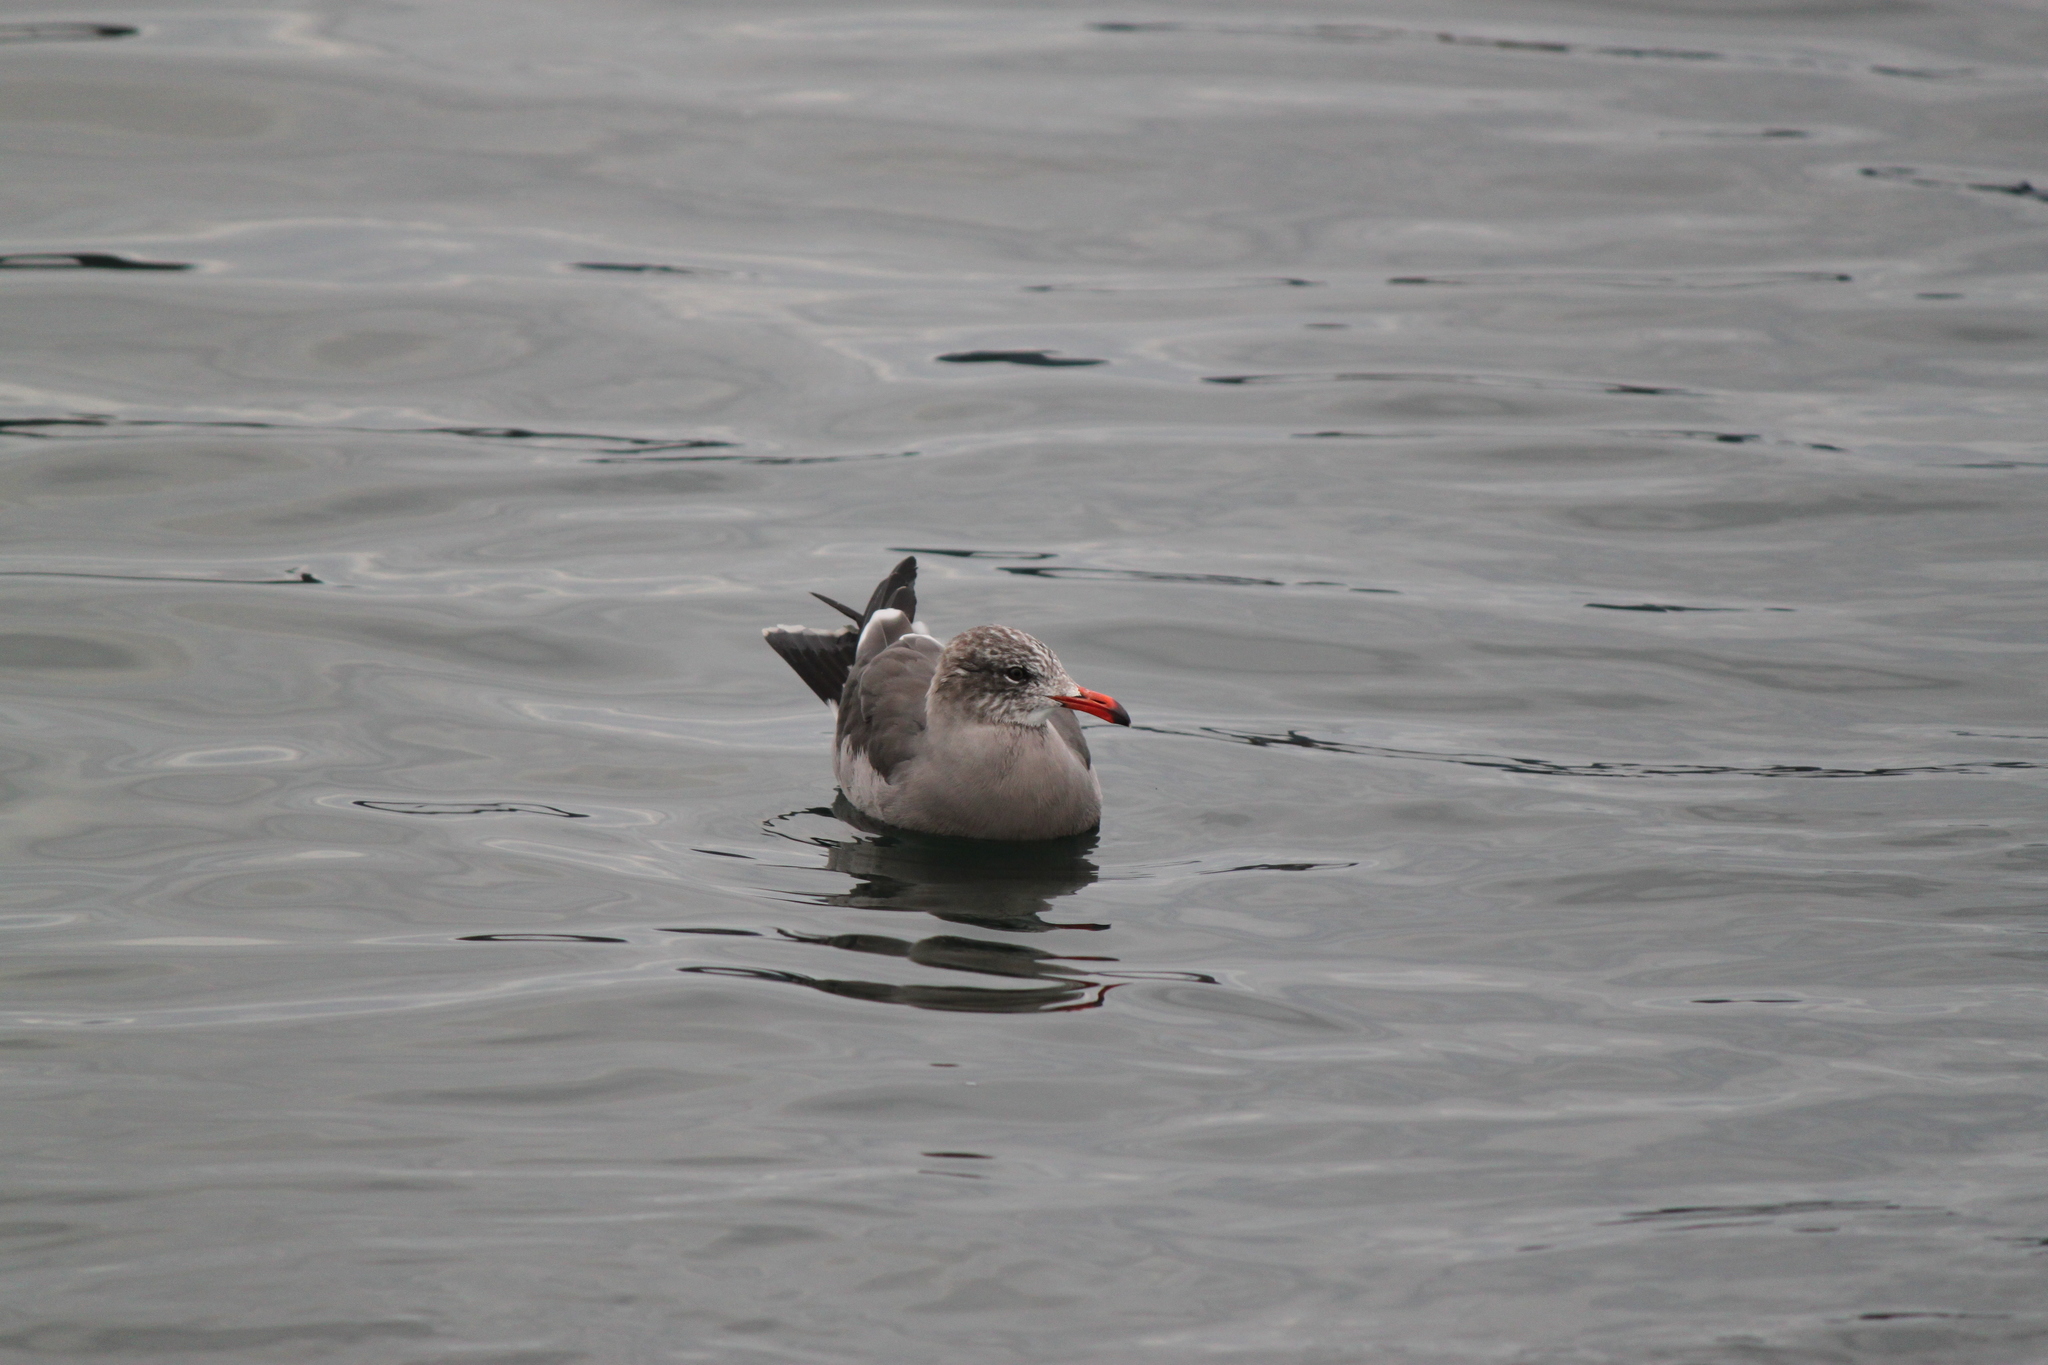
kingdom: Animalia
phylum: Chordata
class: Aves
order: Charadriiformes
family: Laridae
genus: Larus
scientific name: Larus heermanni
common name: Heermann's gull
